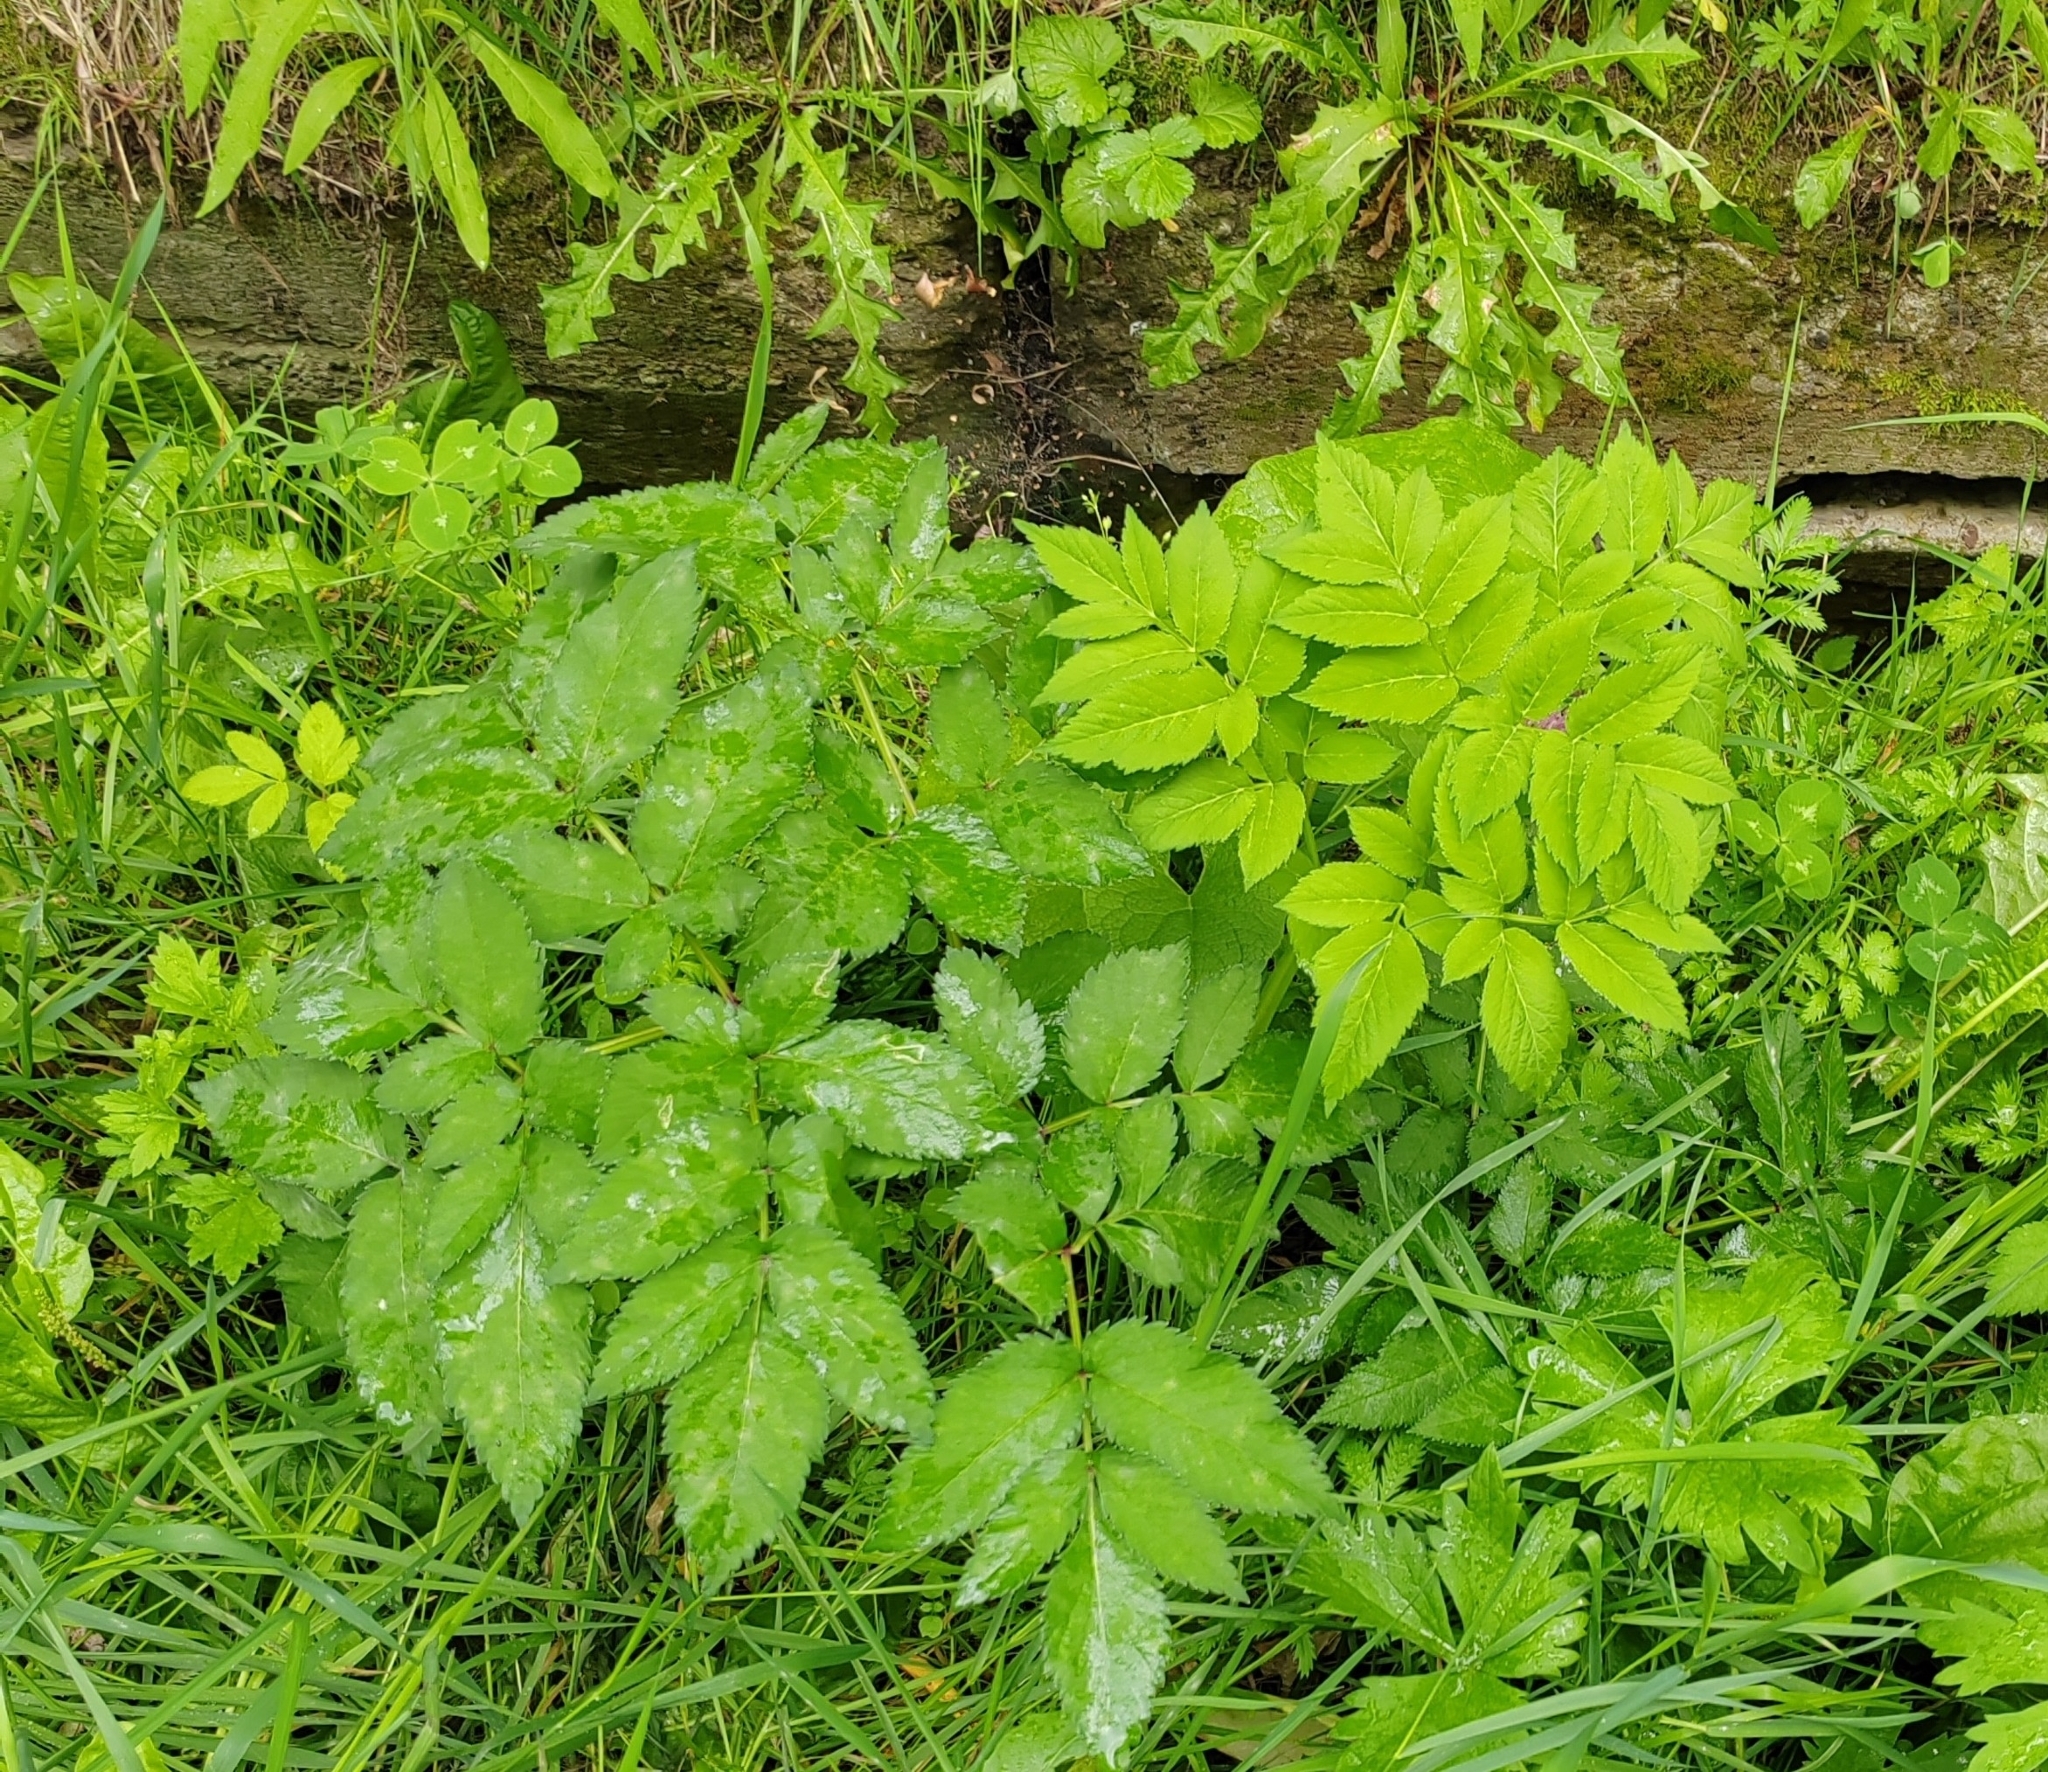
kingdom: Plantae
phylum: Tracheophyta
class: Magnoliopsida
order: Apiales
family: Apiaceae
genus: Angelica
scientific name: Angelica sylvestris
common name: Wild angelica
